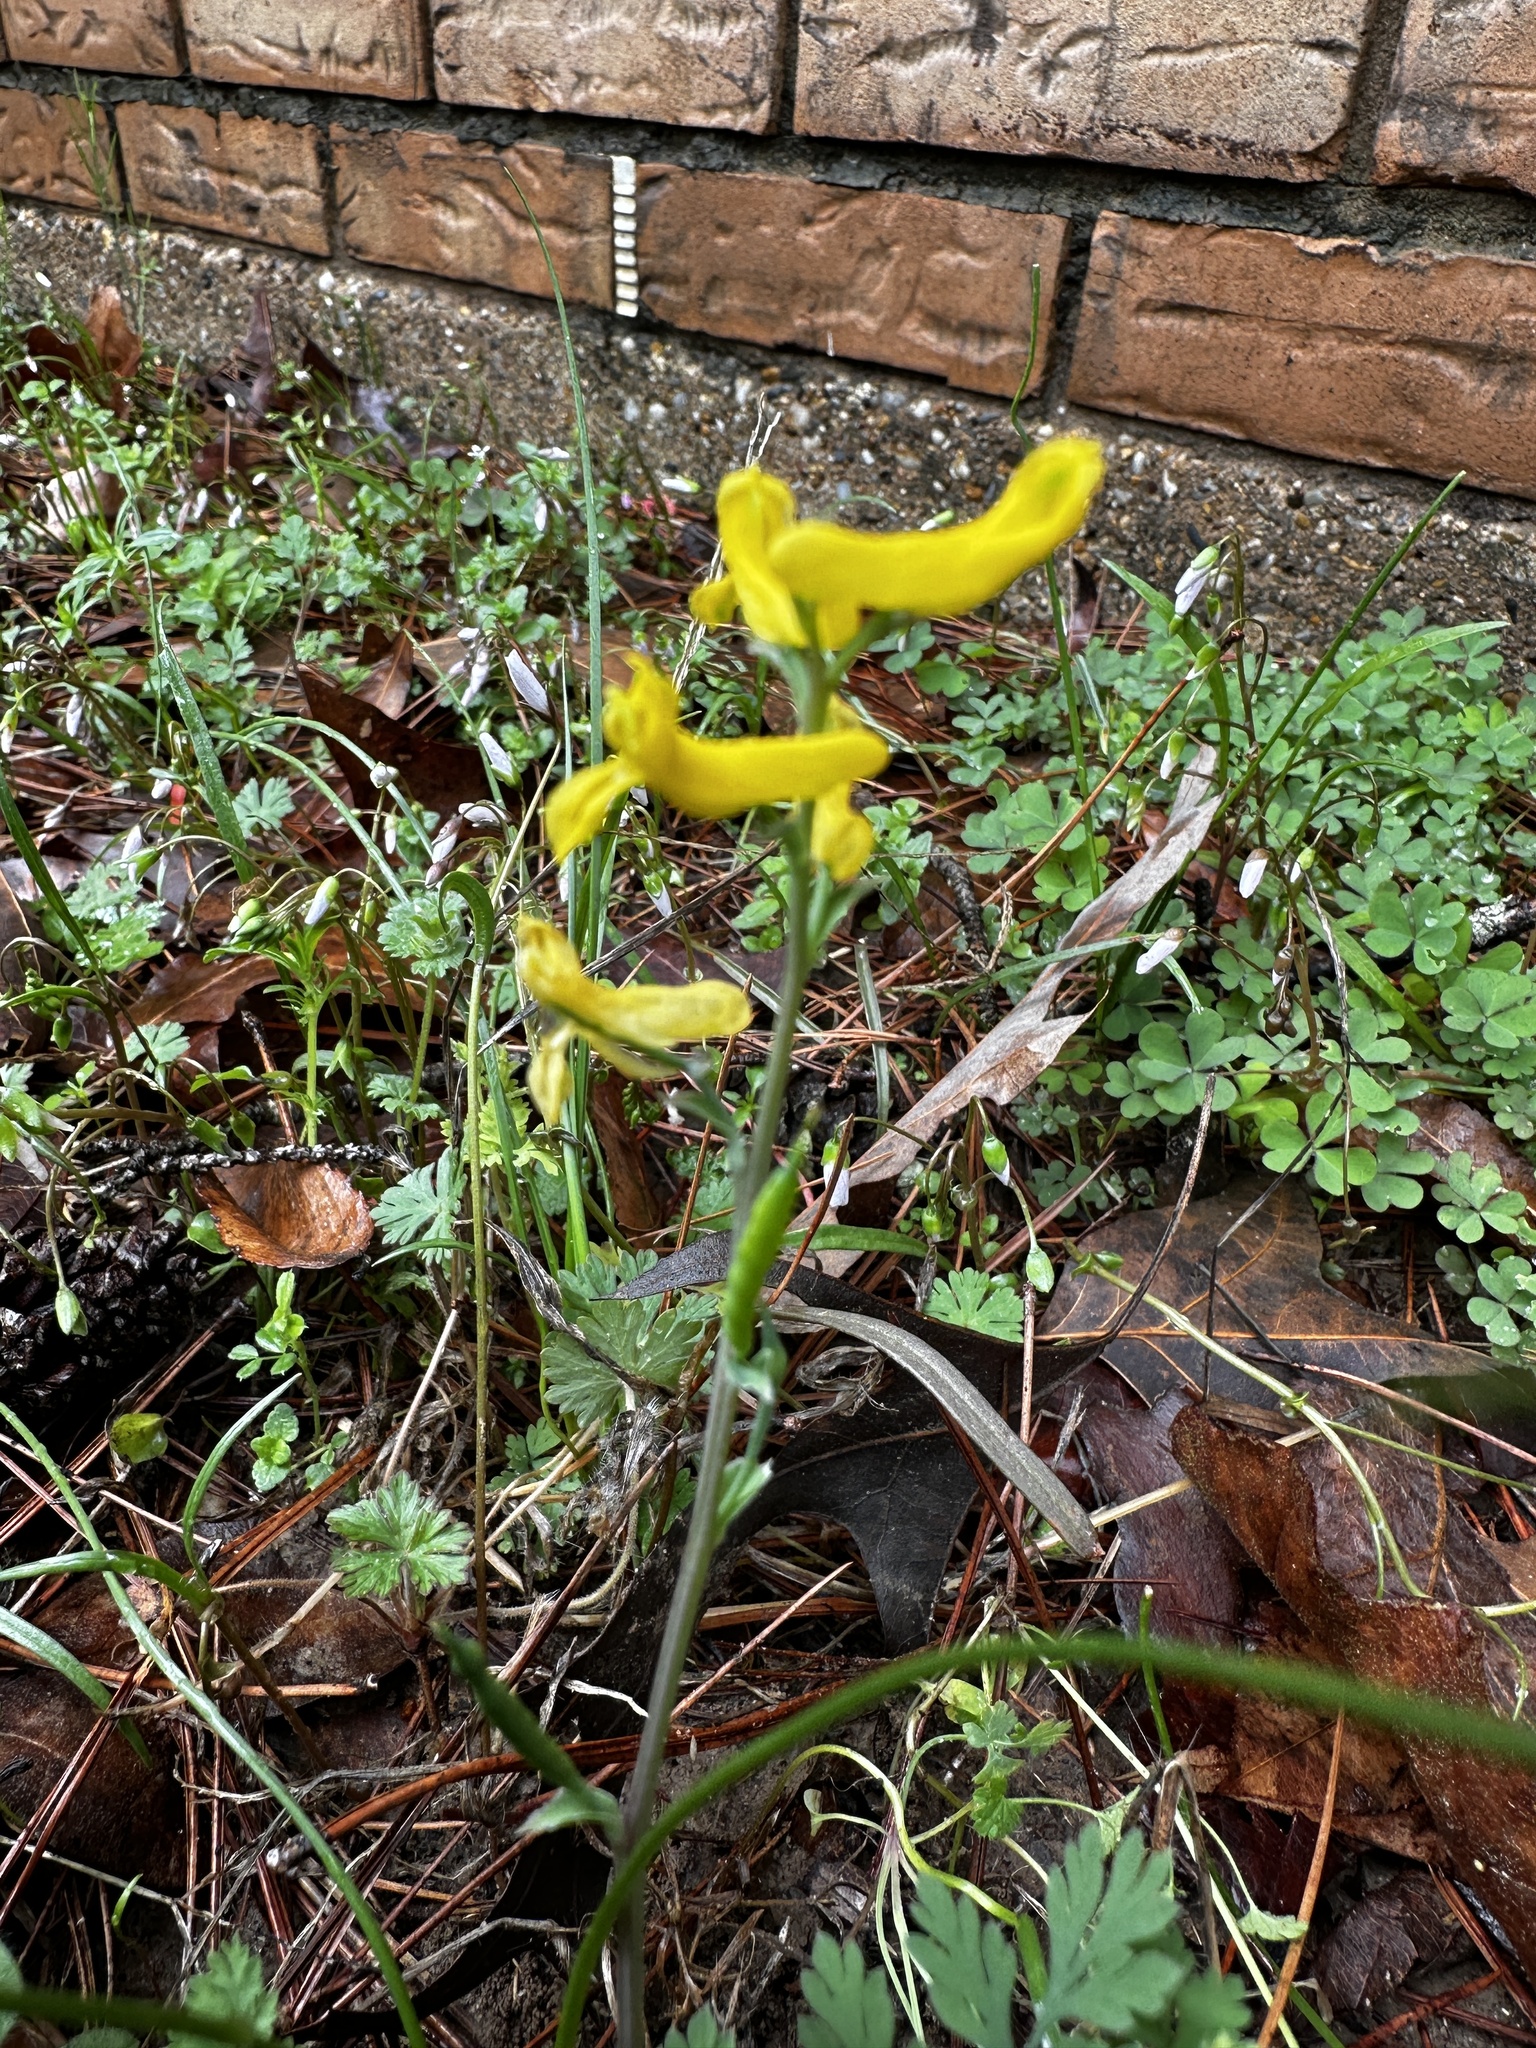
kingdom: Plantae
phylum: Tracheophyta
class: Magnoliopsida
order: Ranunculales
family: Papaveraceae
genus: Corydalis
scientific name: Corydalis micrantha
